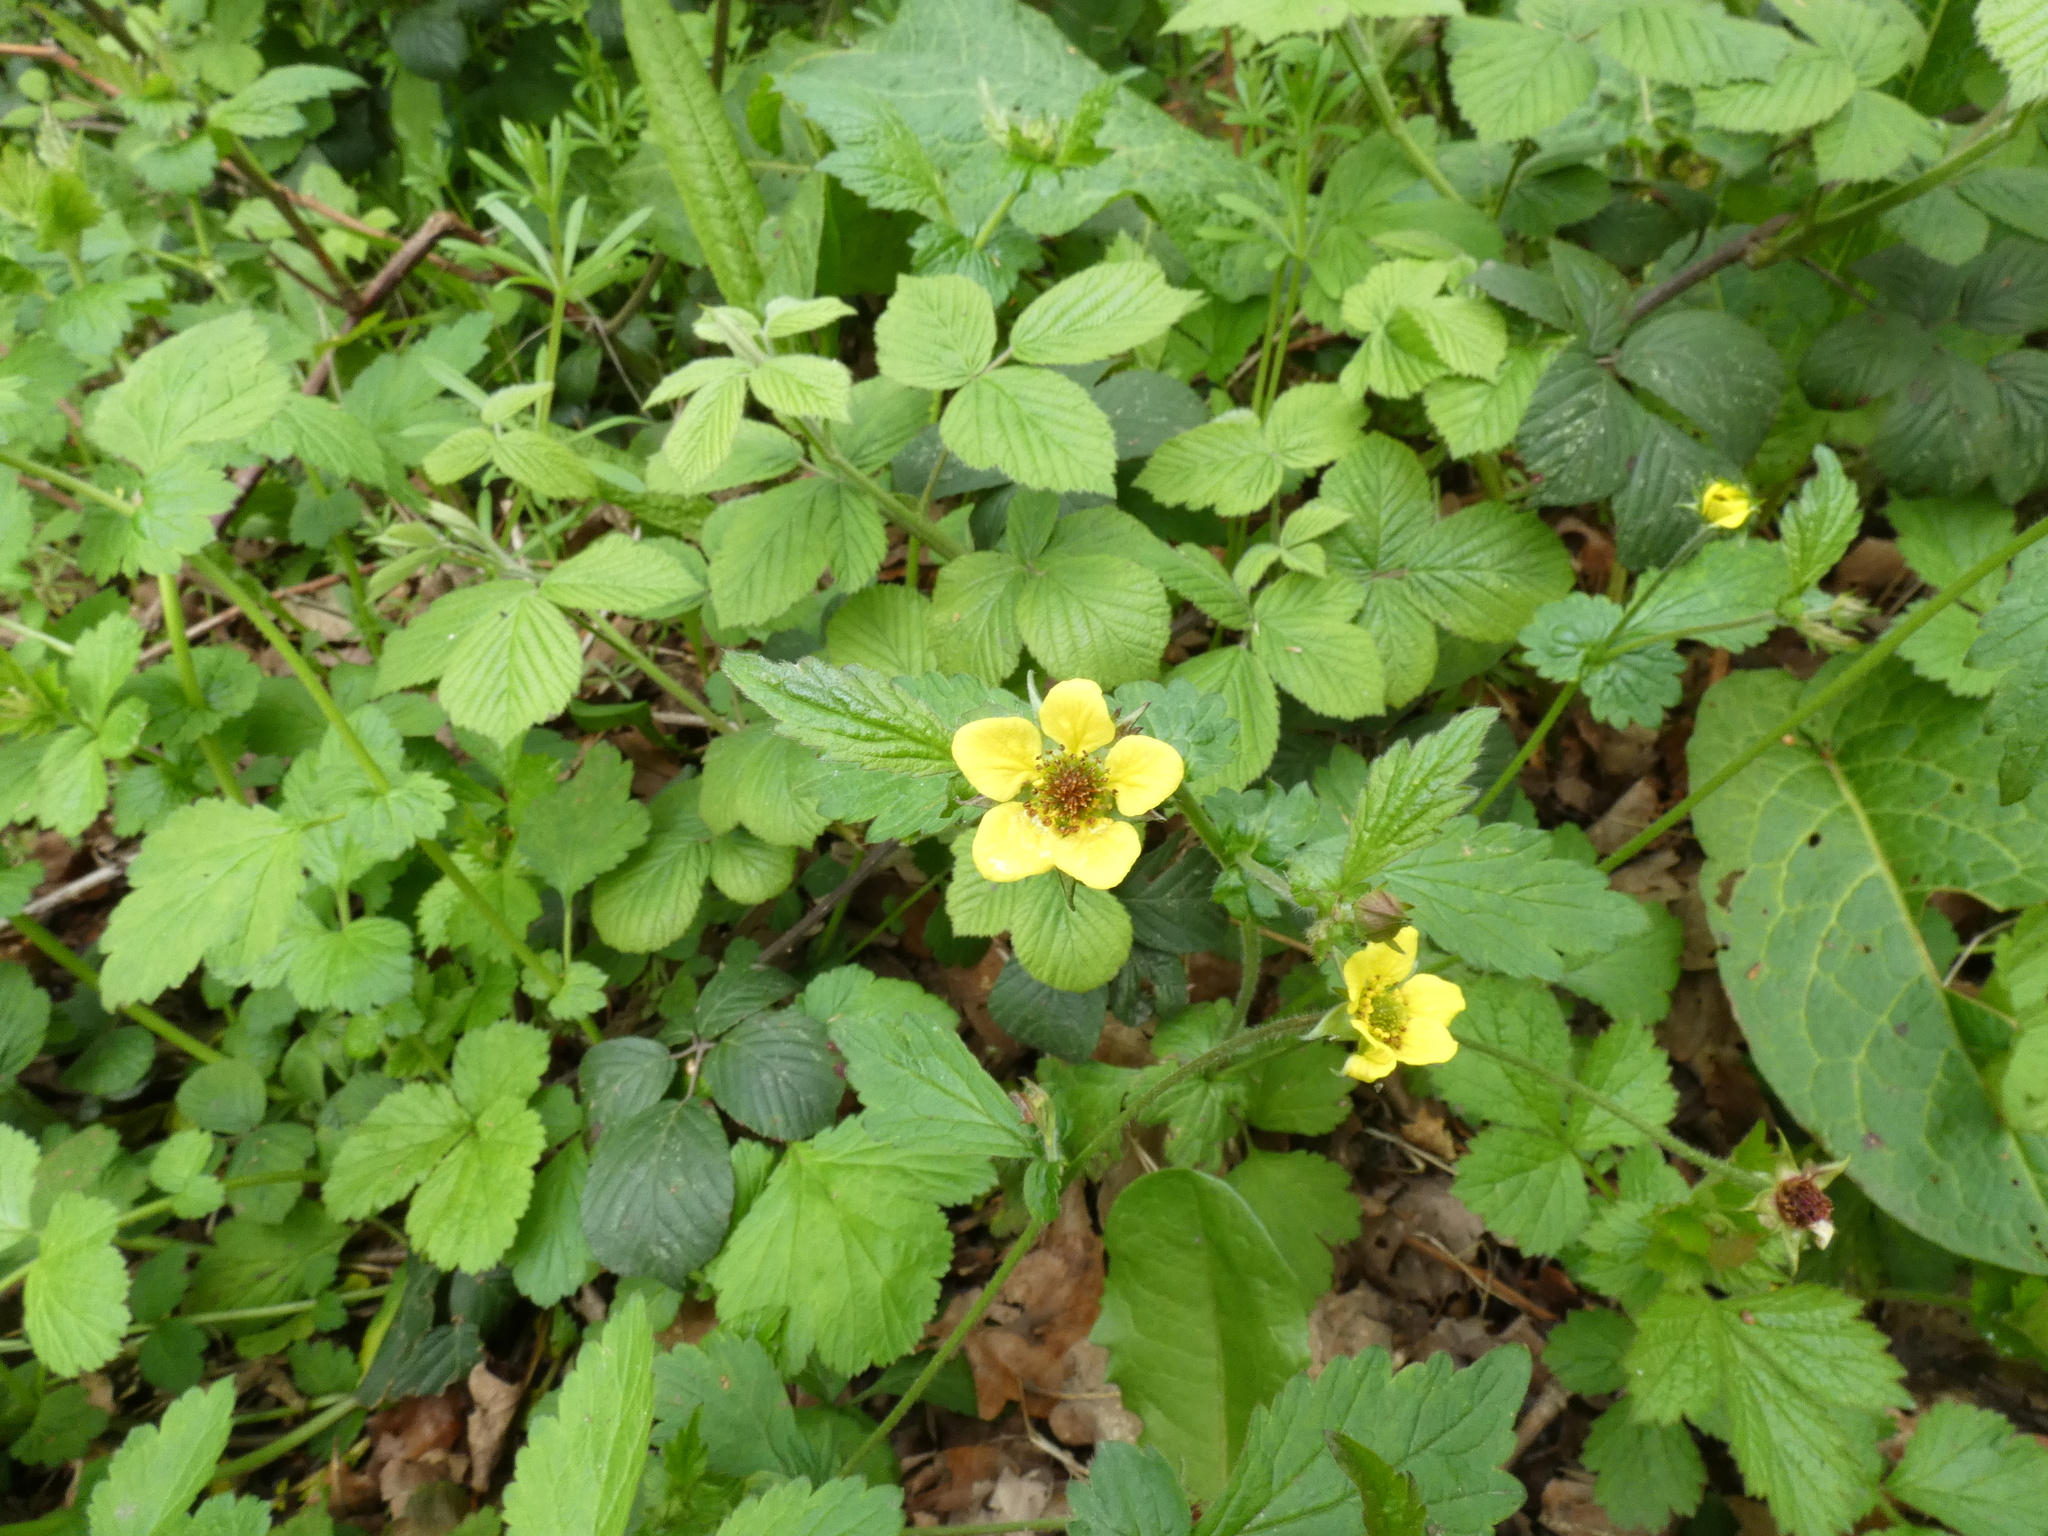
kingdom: Plantae
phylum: Tracheophyta
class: Magnoliopsida
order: Rosales
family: Rosaceae
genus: Geum
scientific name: Geum urbanum
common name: Wood avens
